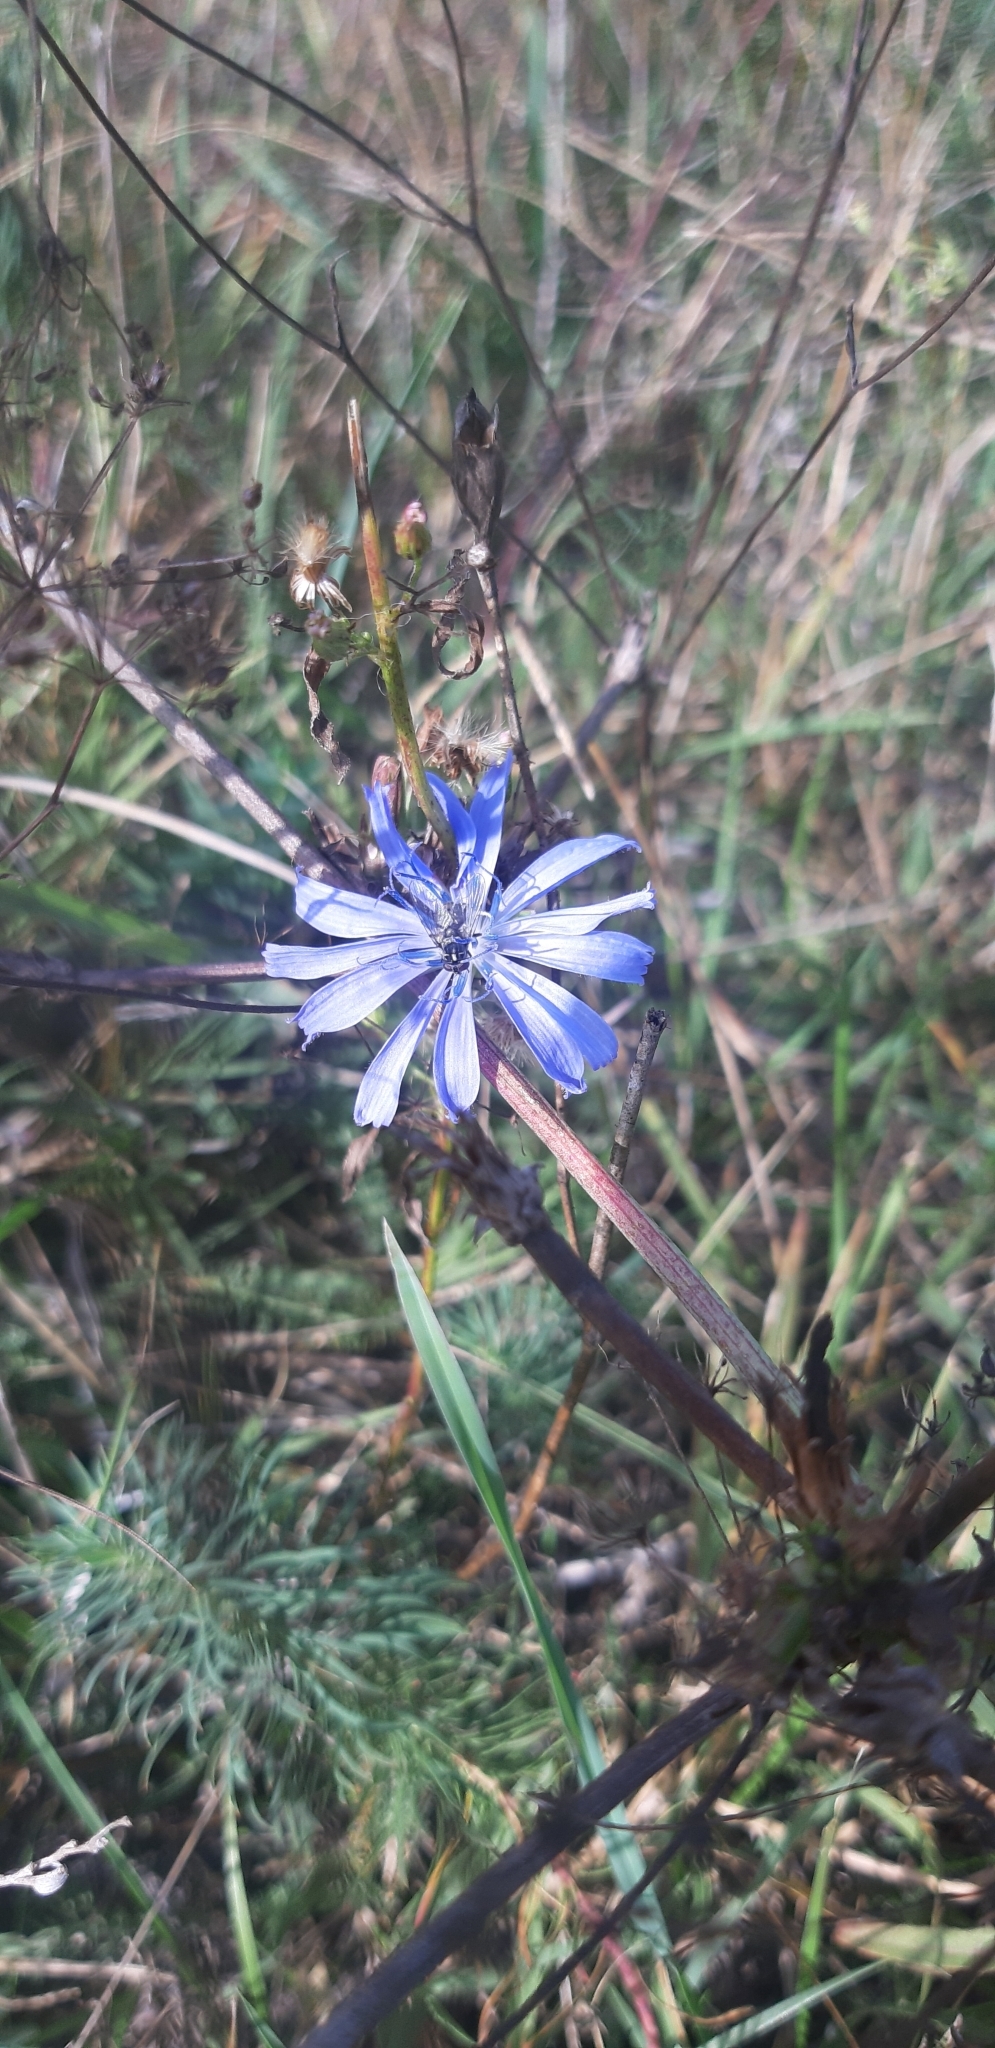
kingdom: Plantae
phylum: Tracheophyta
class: Magnoliopsida
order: Asterales
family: Asteraceae
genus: Cichorium
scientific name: Cichorium intybus
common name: Chicory
